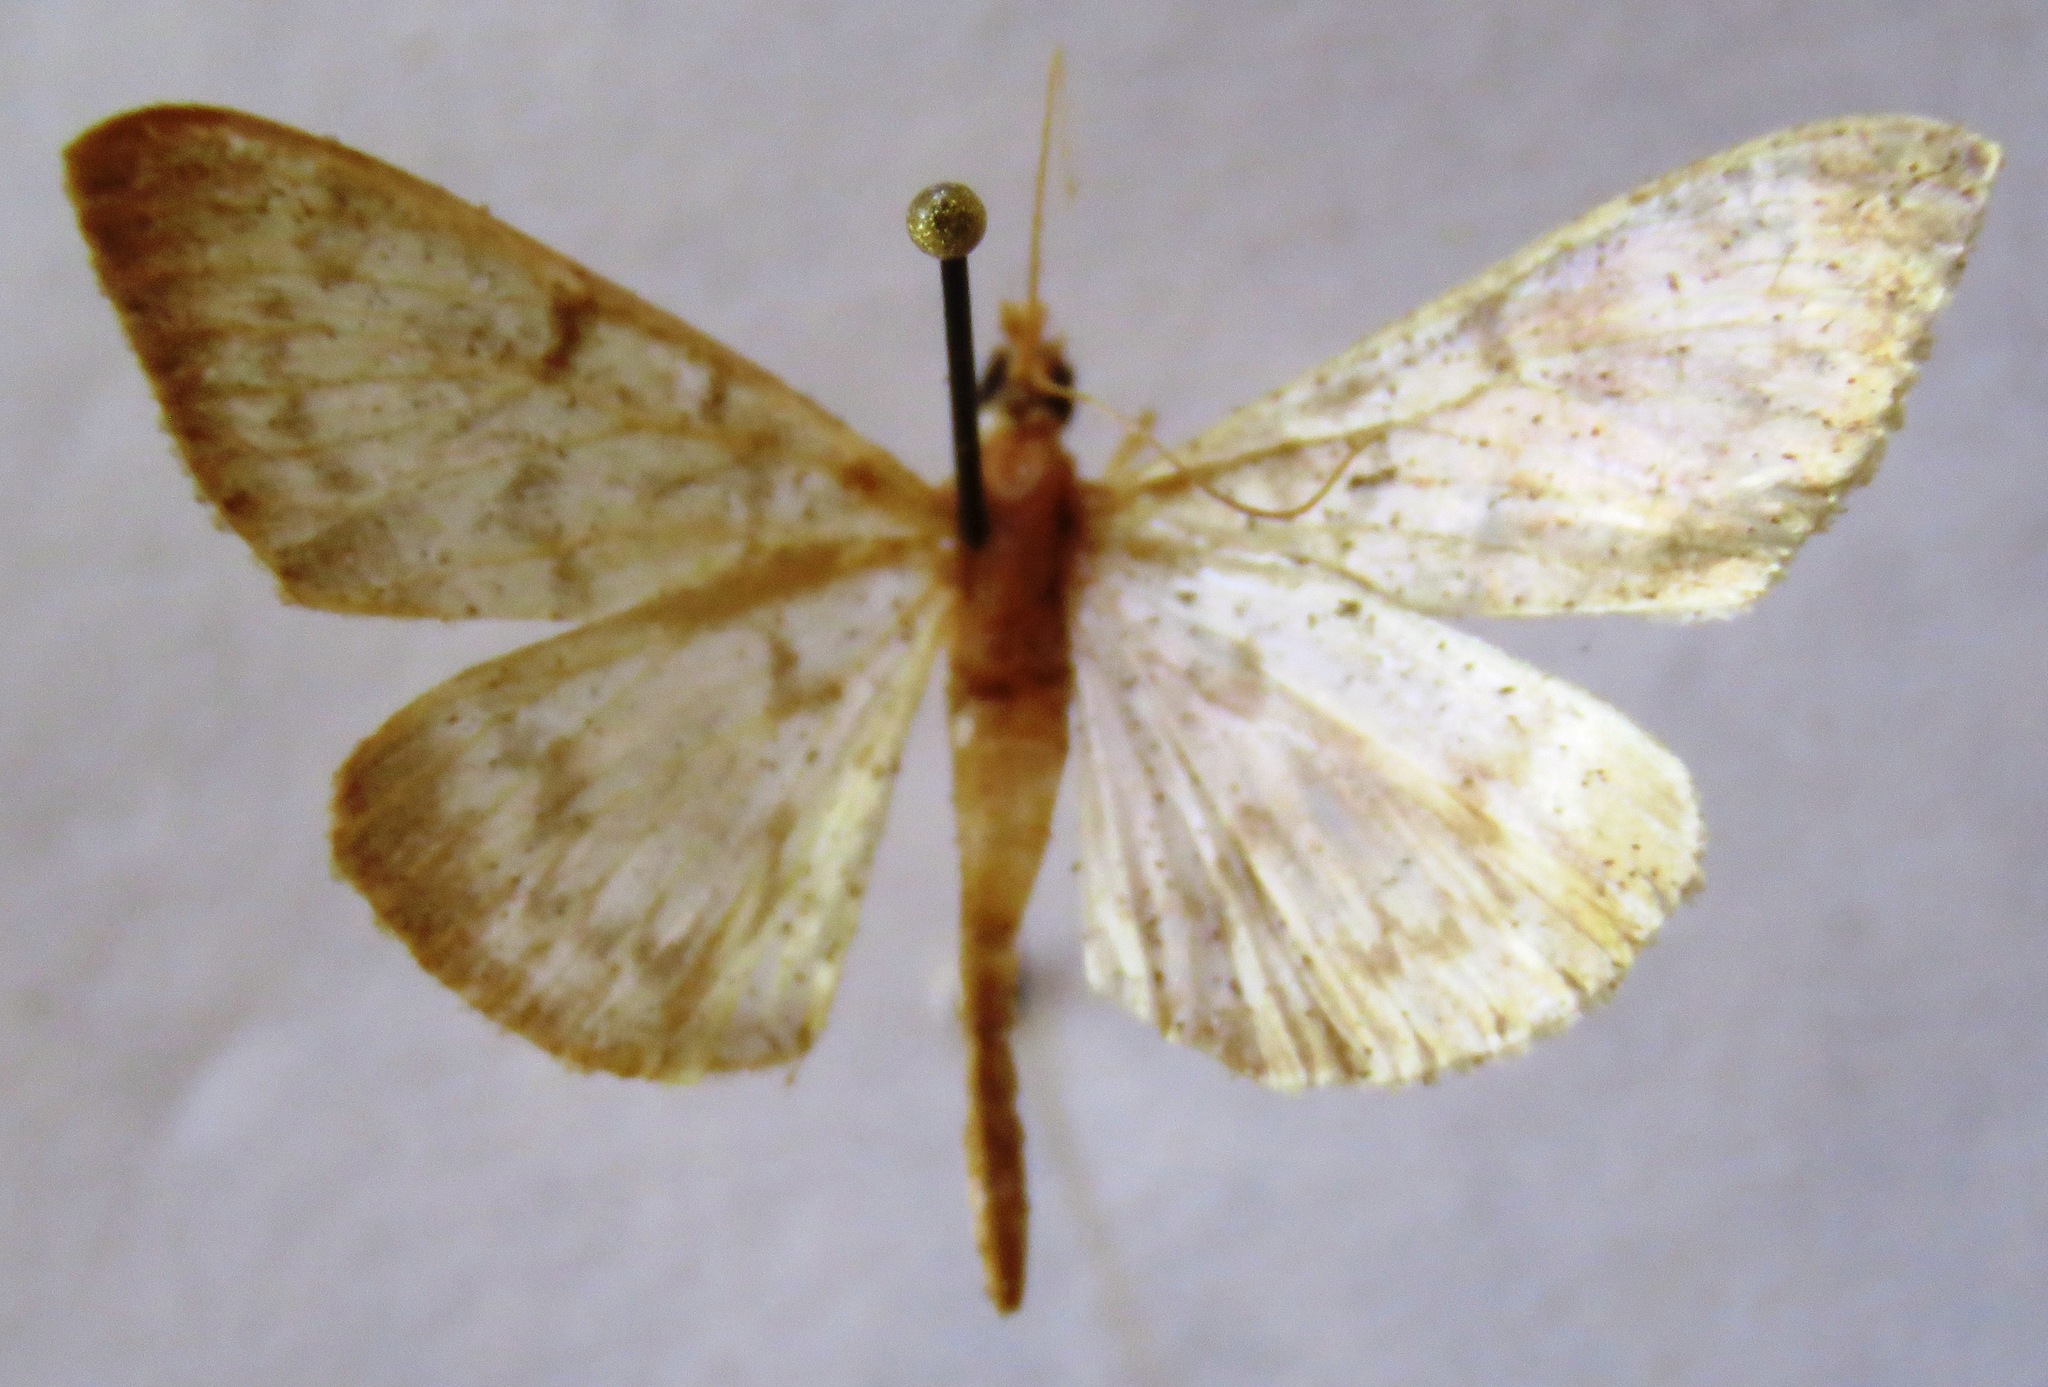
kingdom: Animalia
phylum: Arthropoda
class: Insecta
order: Lepidoptera
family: Crambidae
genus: Patania
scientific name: Patania ruralis
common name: Mother of pearl
